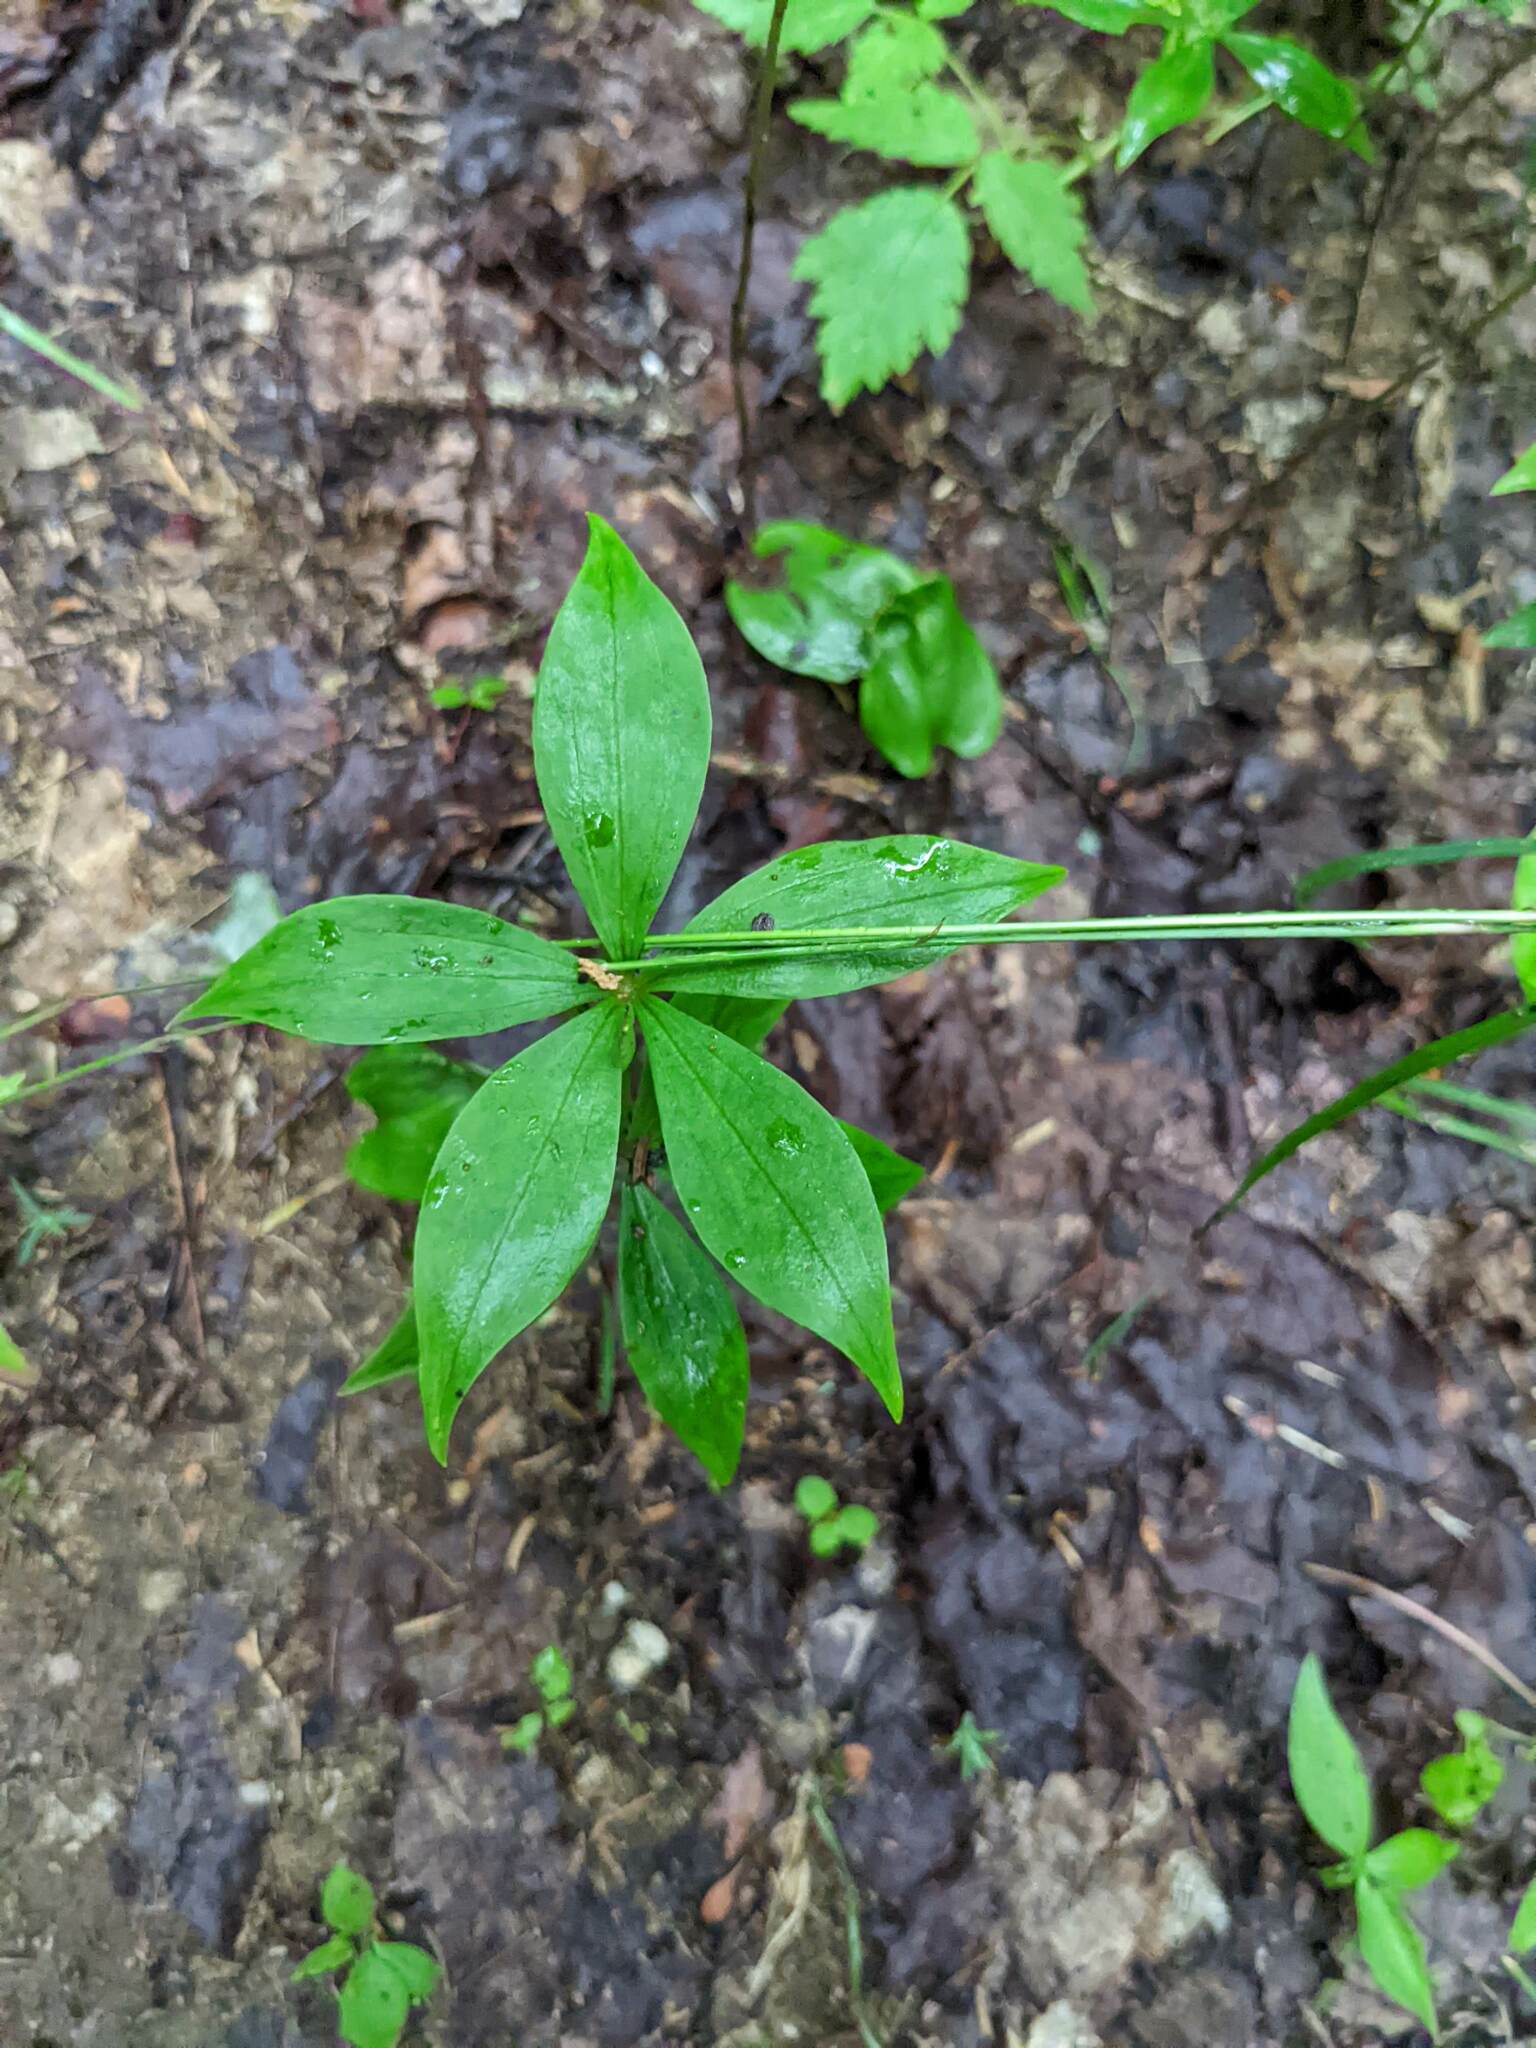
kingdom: Plantae
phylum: Tracheophyta
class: Liliopsida
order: Liliales
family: Liliaceae
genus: Medeola
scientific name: Medeola virginiana
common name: Indian cucumber-root
